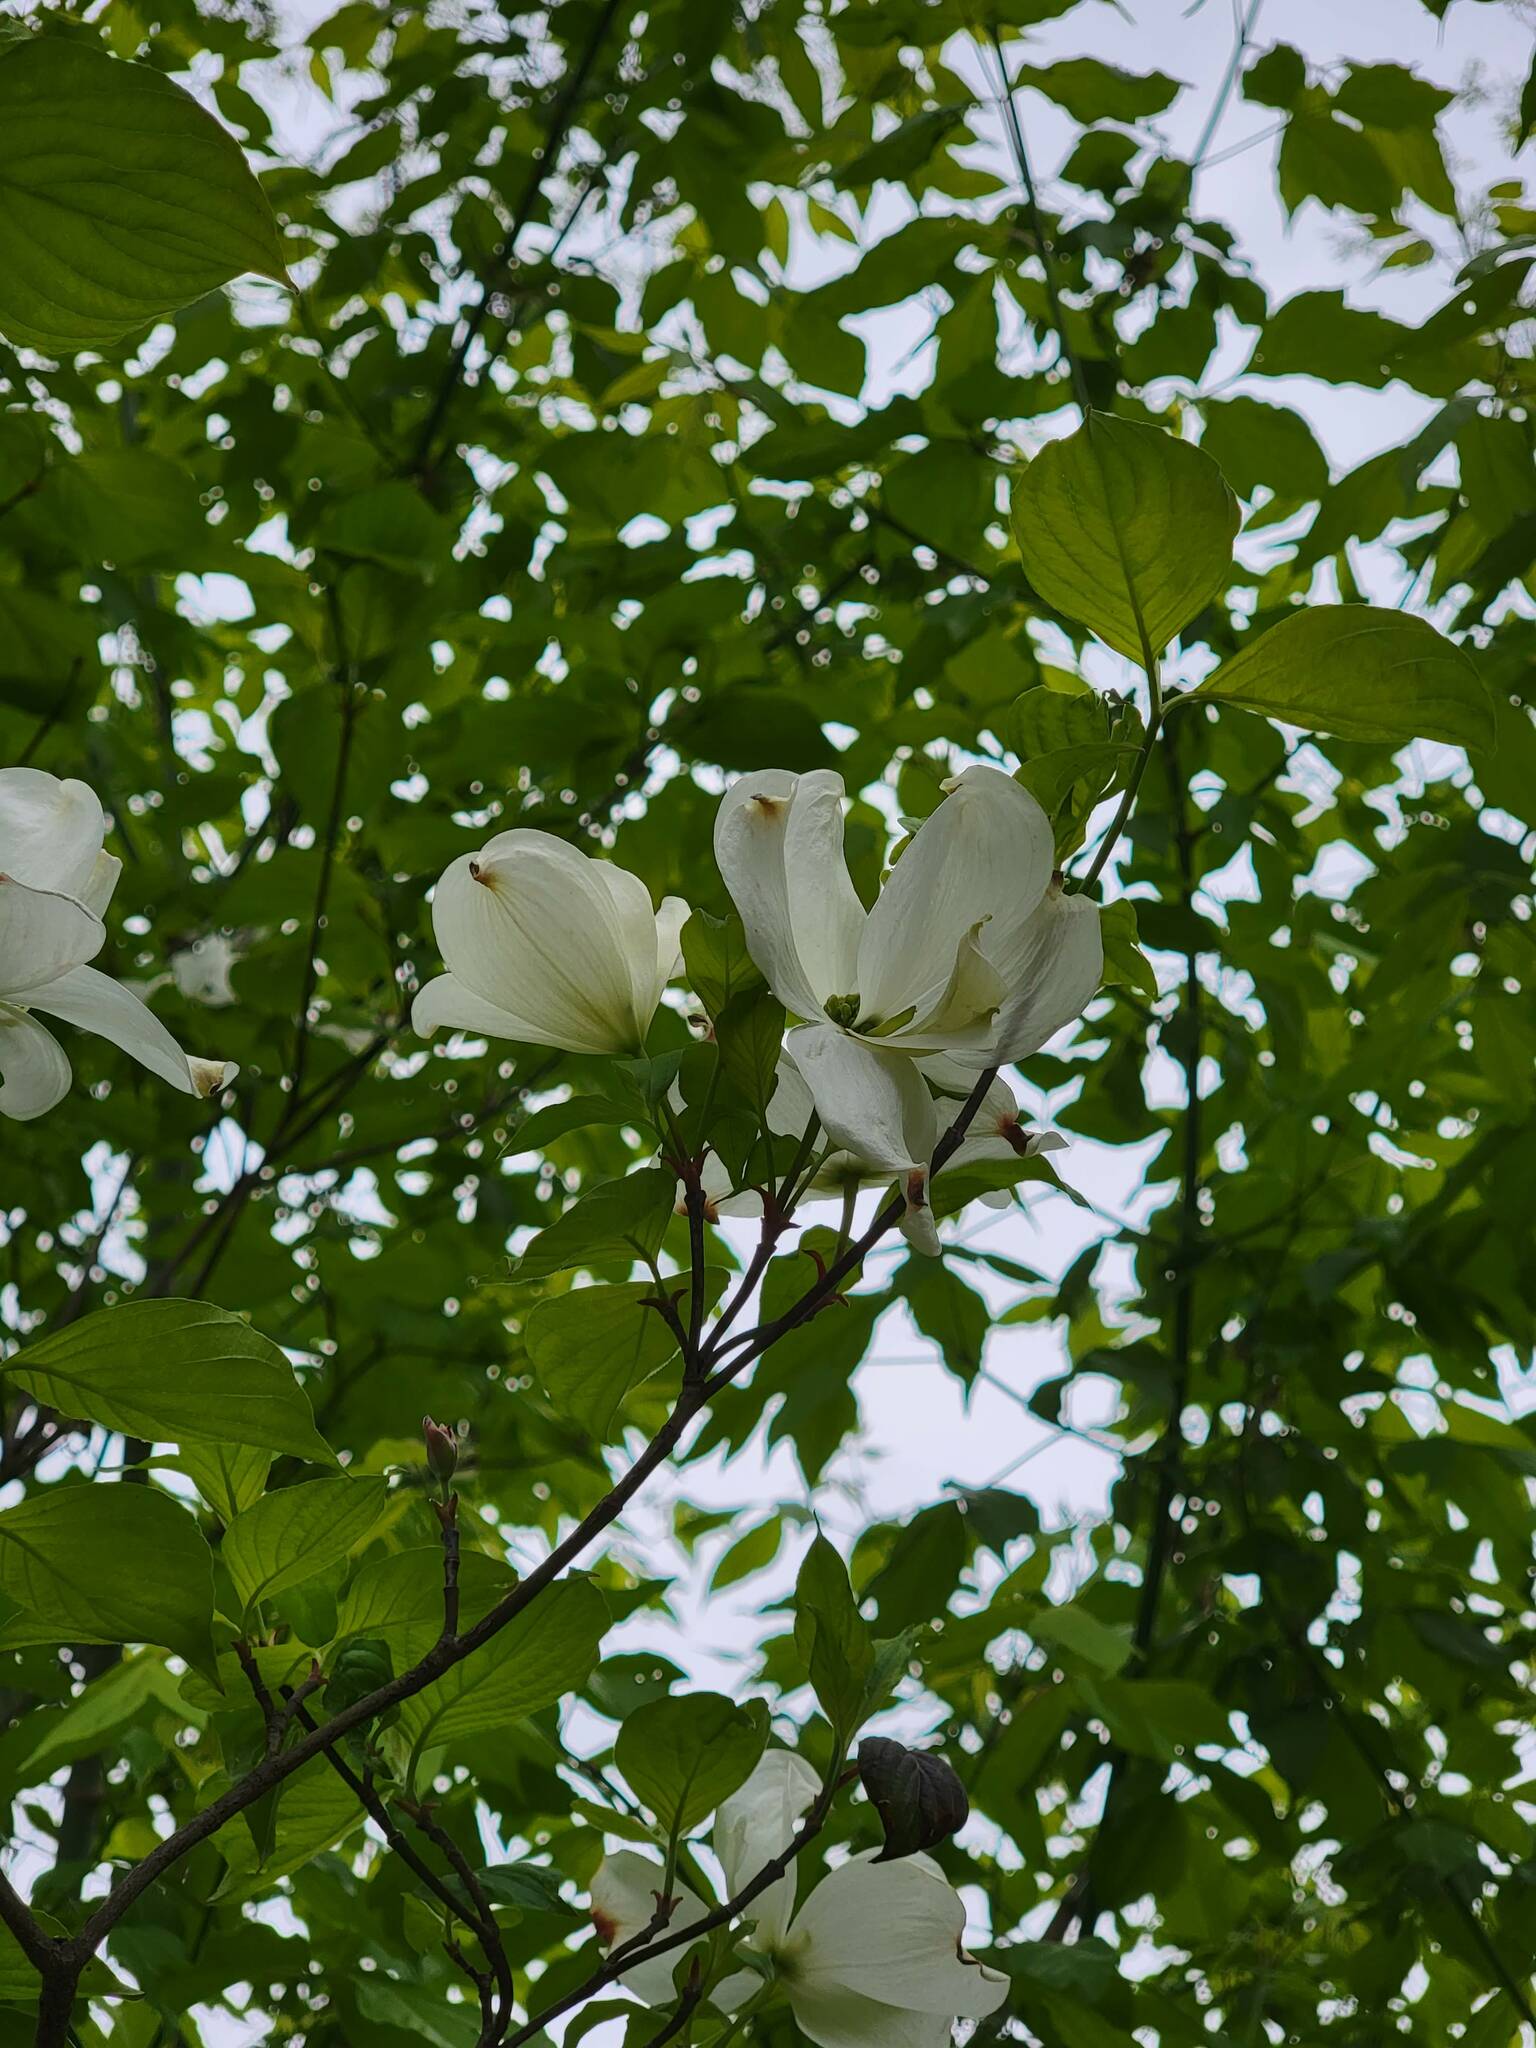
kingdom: Plantae
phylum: Tracheophyta
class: Magnoliopsida
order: Cornales
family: Cornaceae
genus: Cornus
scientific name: Cornus florida
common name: Flowering dogwood
